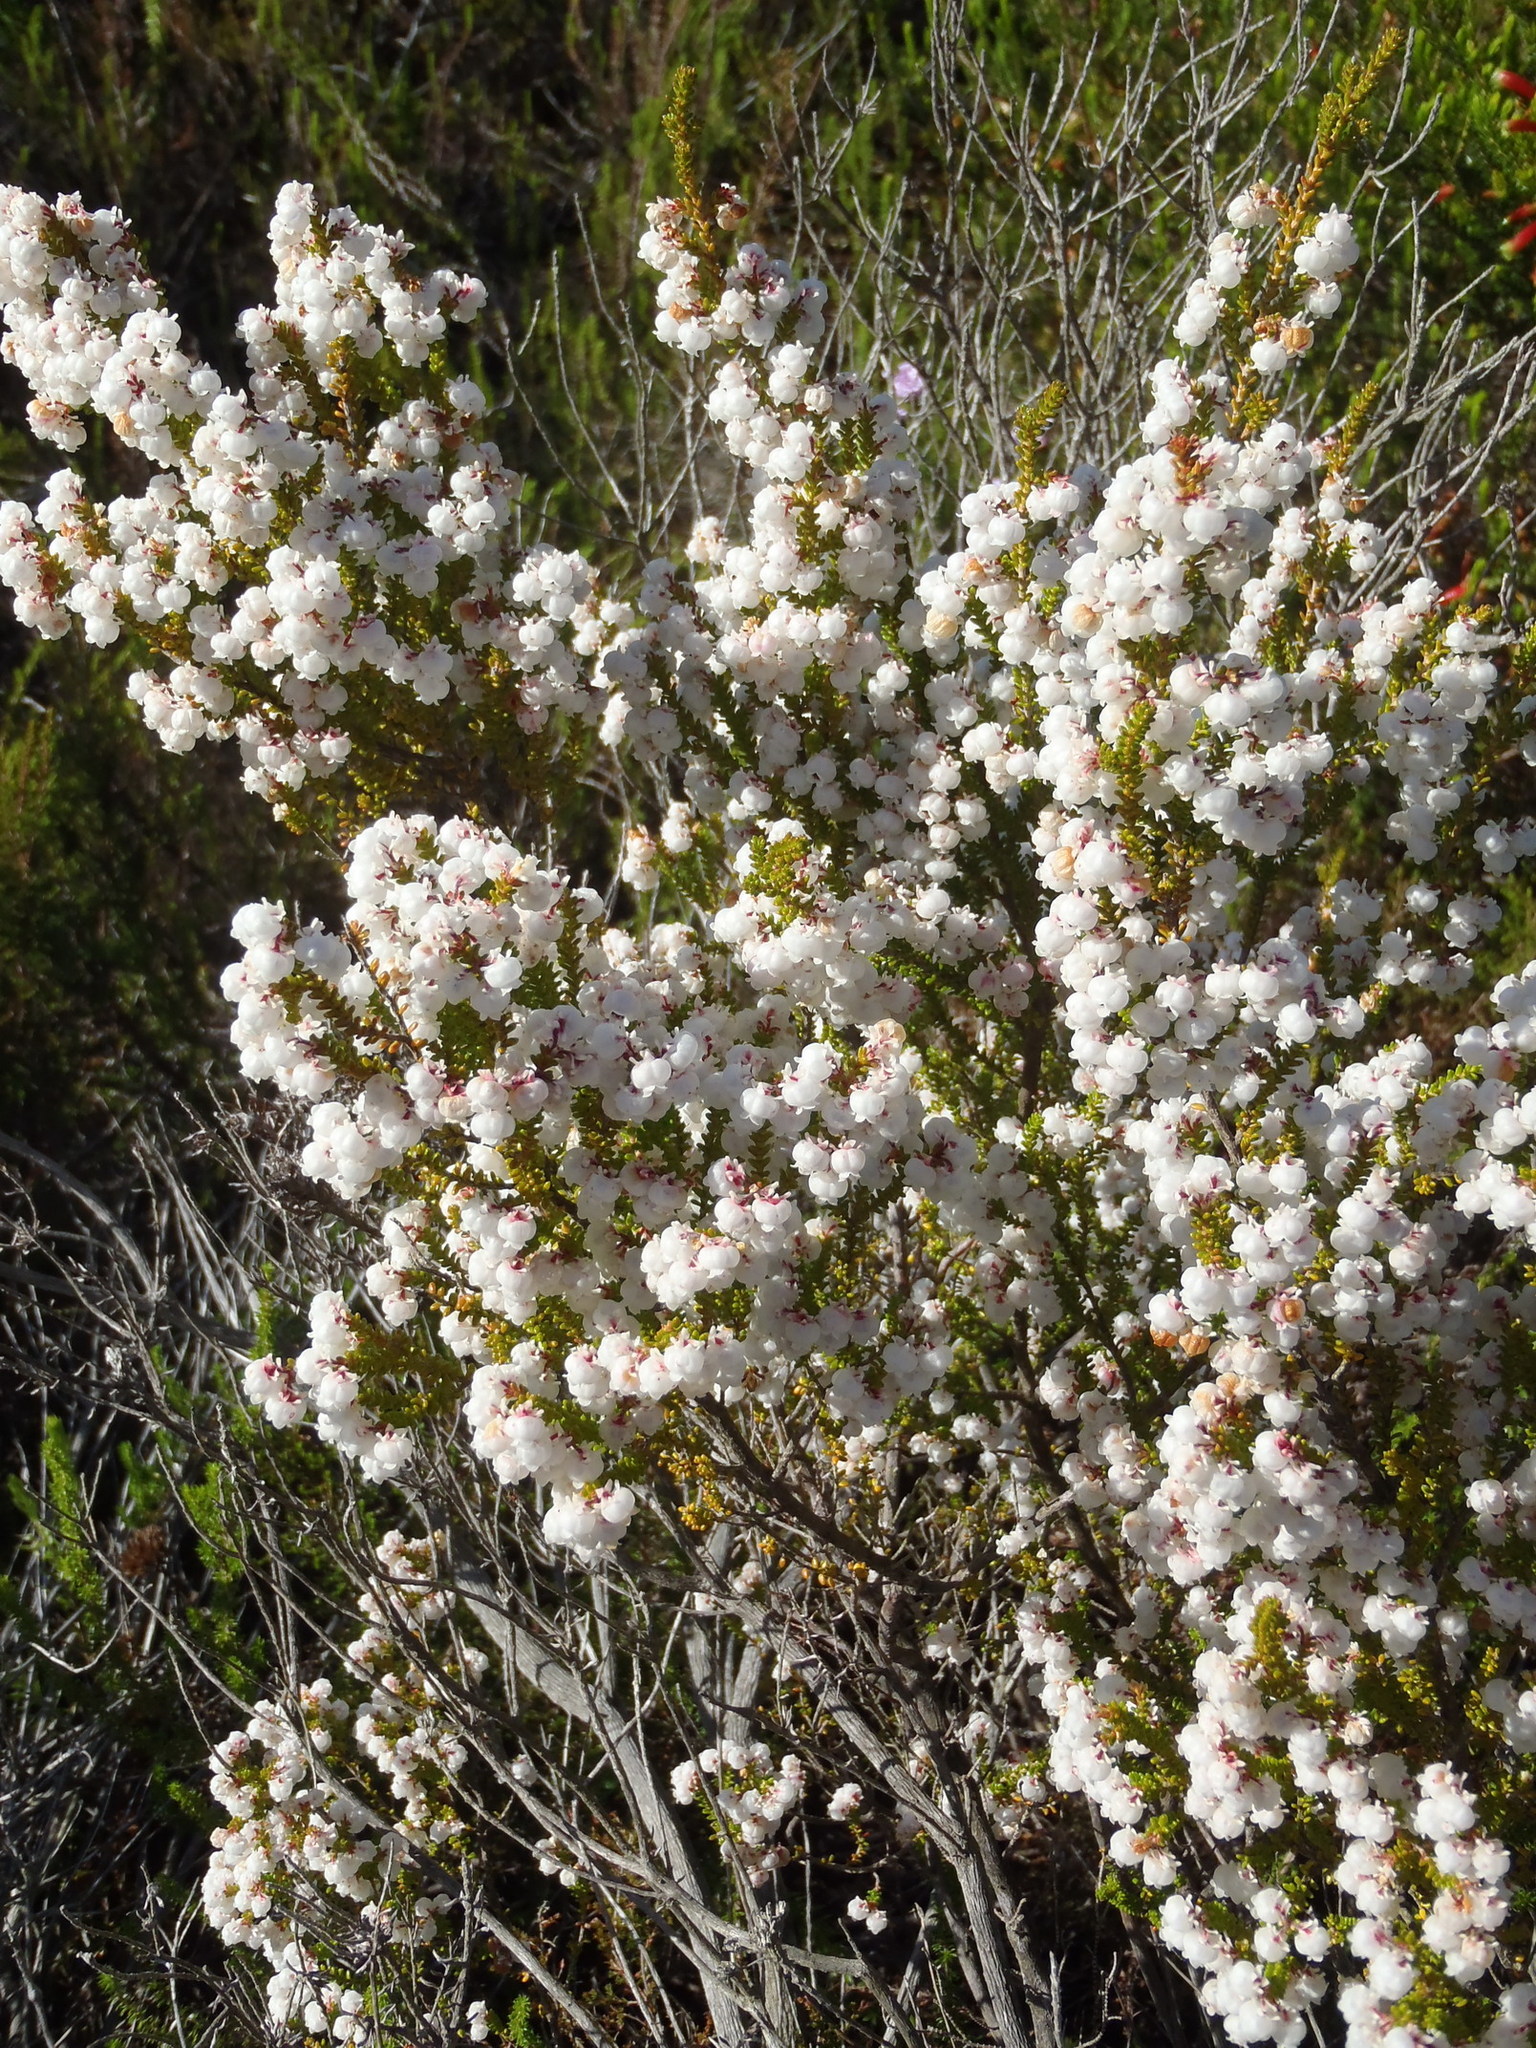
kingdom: Plantae
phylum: Tracheophyta
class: Magnoliopsida
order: Ericales
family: Ericaceae
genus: Erica
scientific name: Erica formosa
